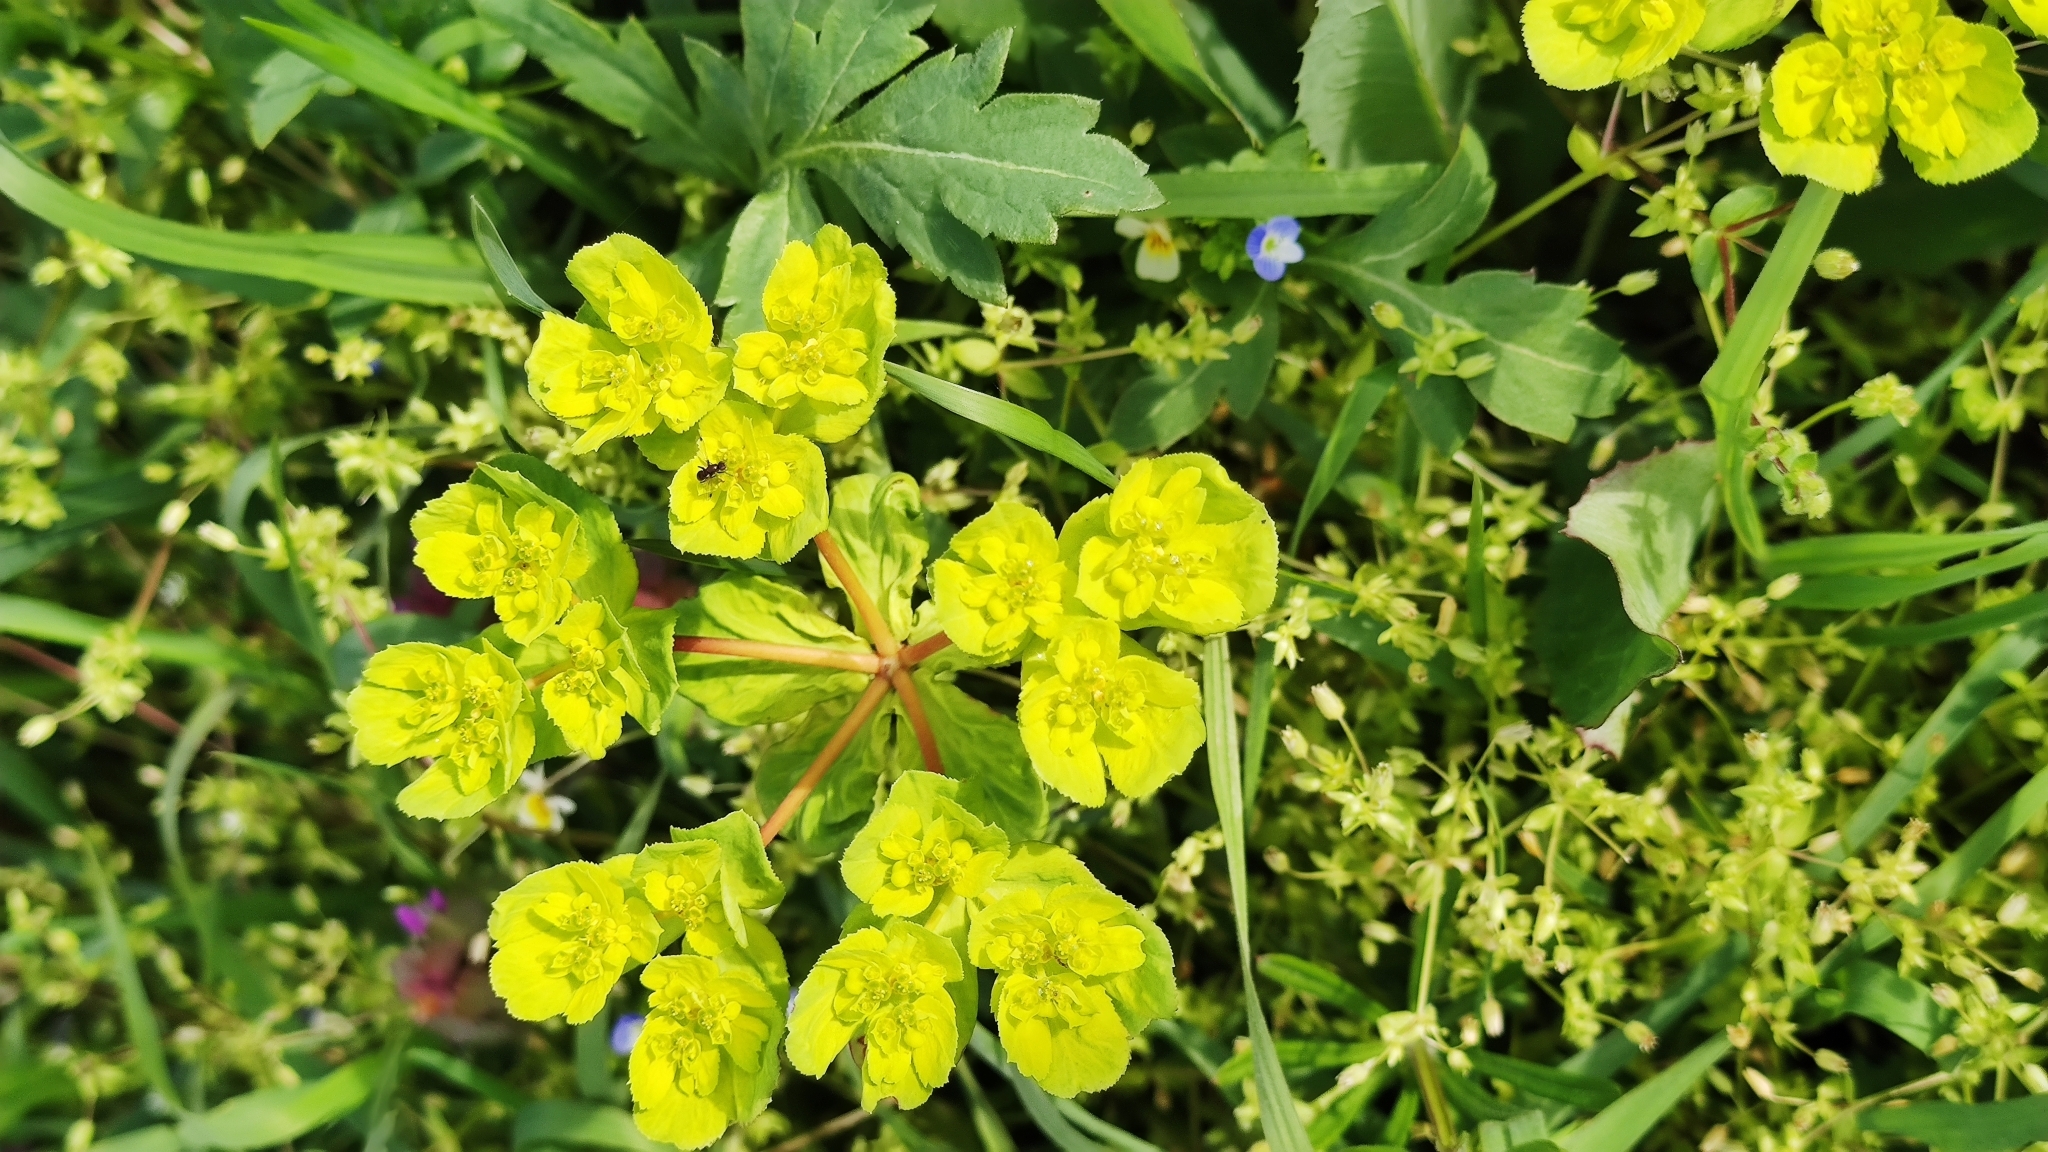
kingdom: Plantae
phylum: Tracheophyta
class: Magnoliopsida
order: Malpighiales
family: Euphorbiaceae
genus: Euphorbia
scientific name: Euphorbia helioscopia
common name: Sun spurge
